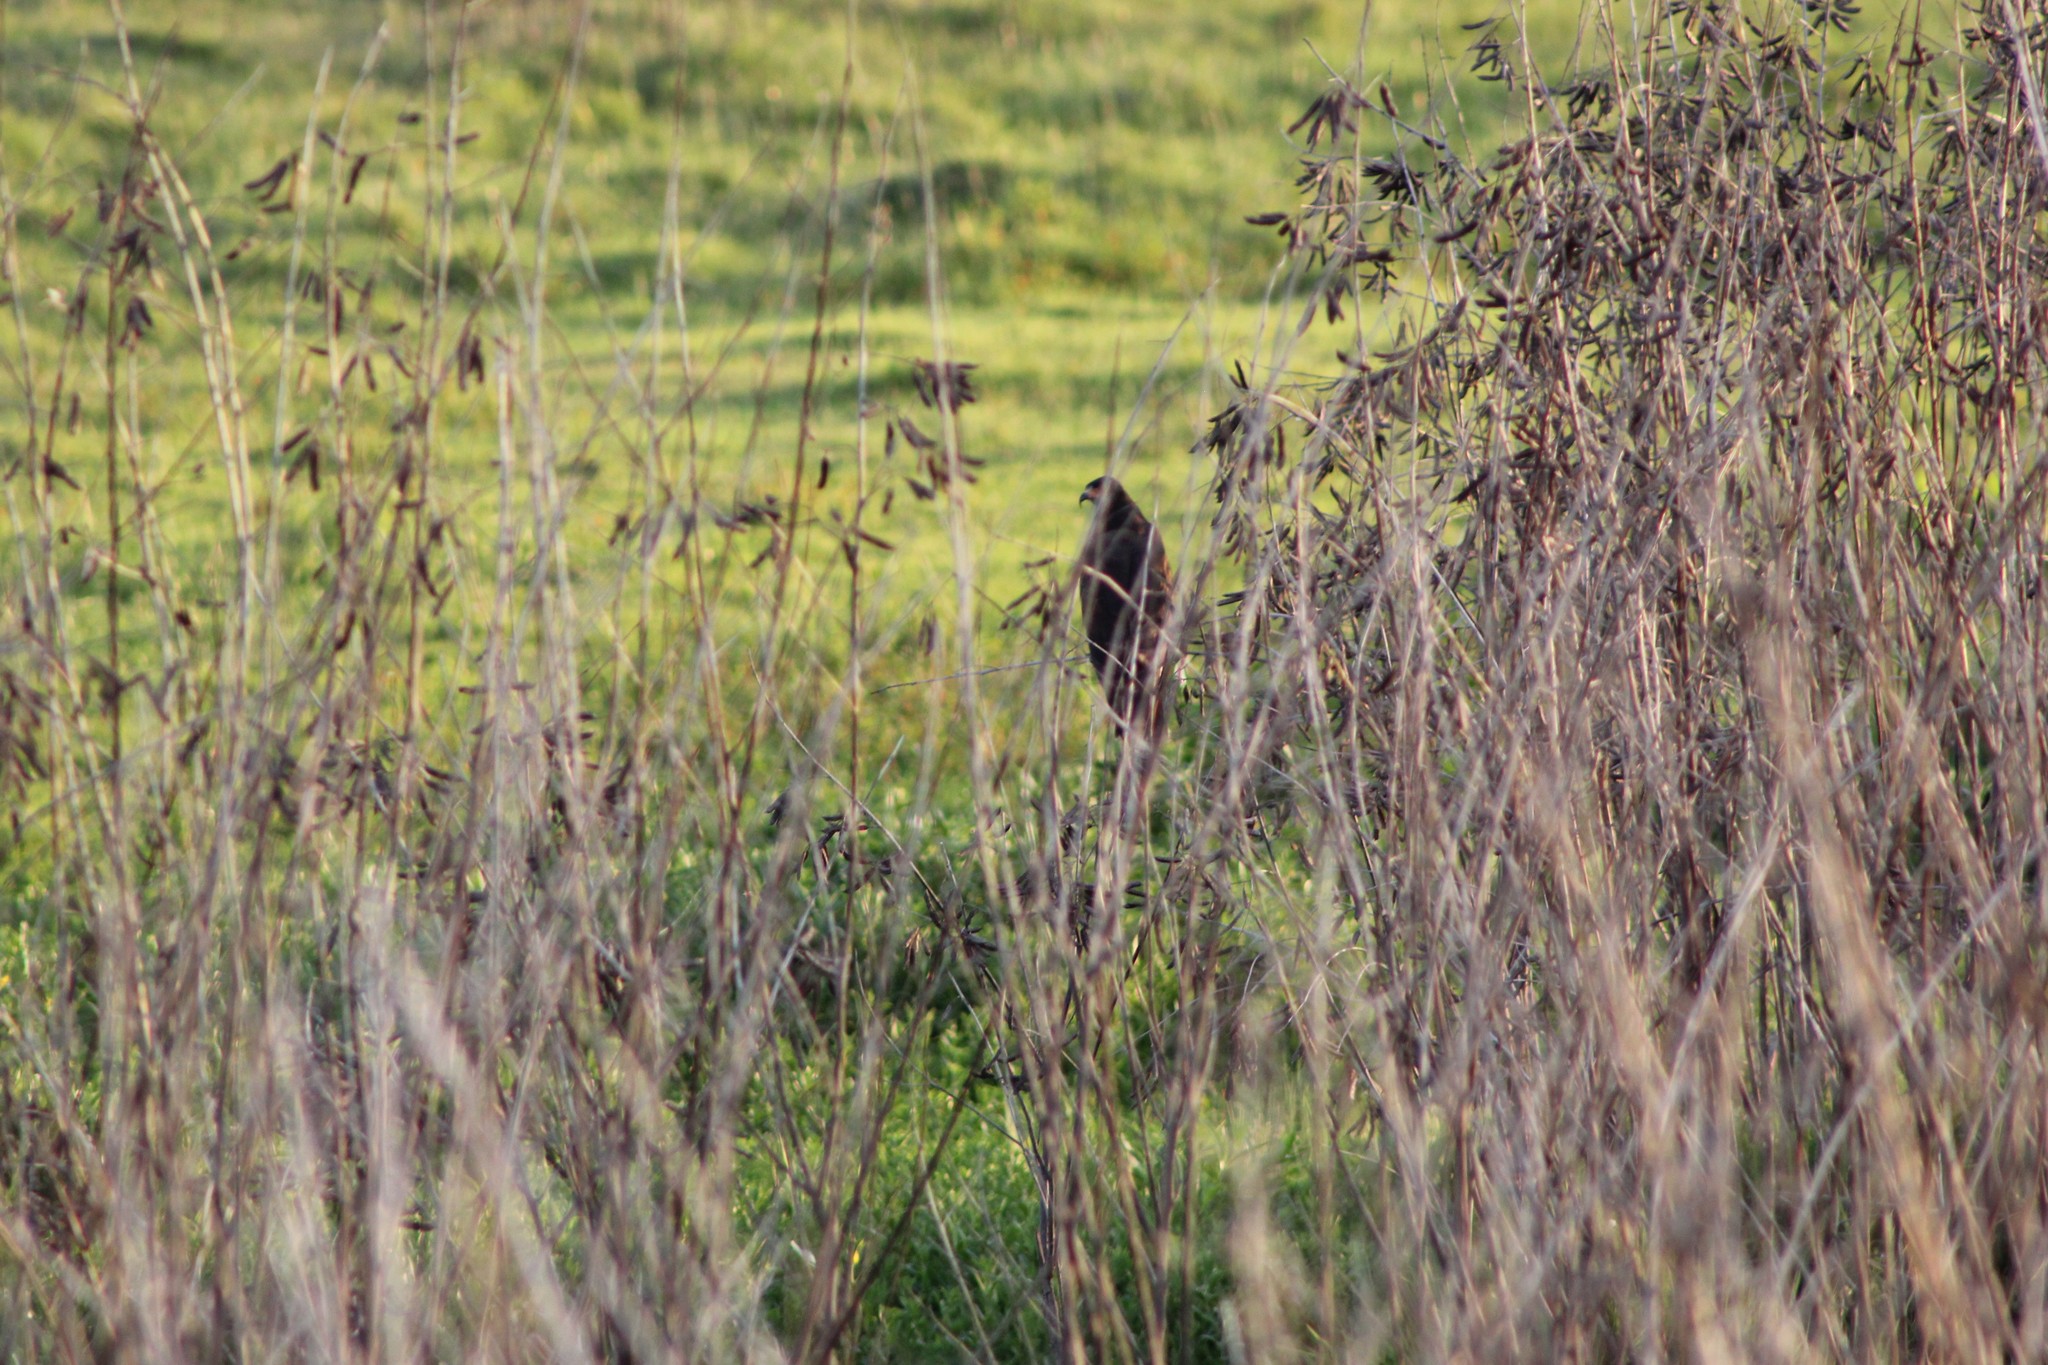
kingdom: Animalia
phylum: Chordata
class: Aves
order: Accipitriformes
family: Accipitridae
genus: Rostrhamus
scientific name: Rostrhamus sociabilis
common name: Snail kite
